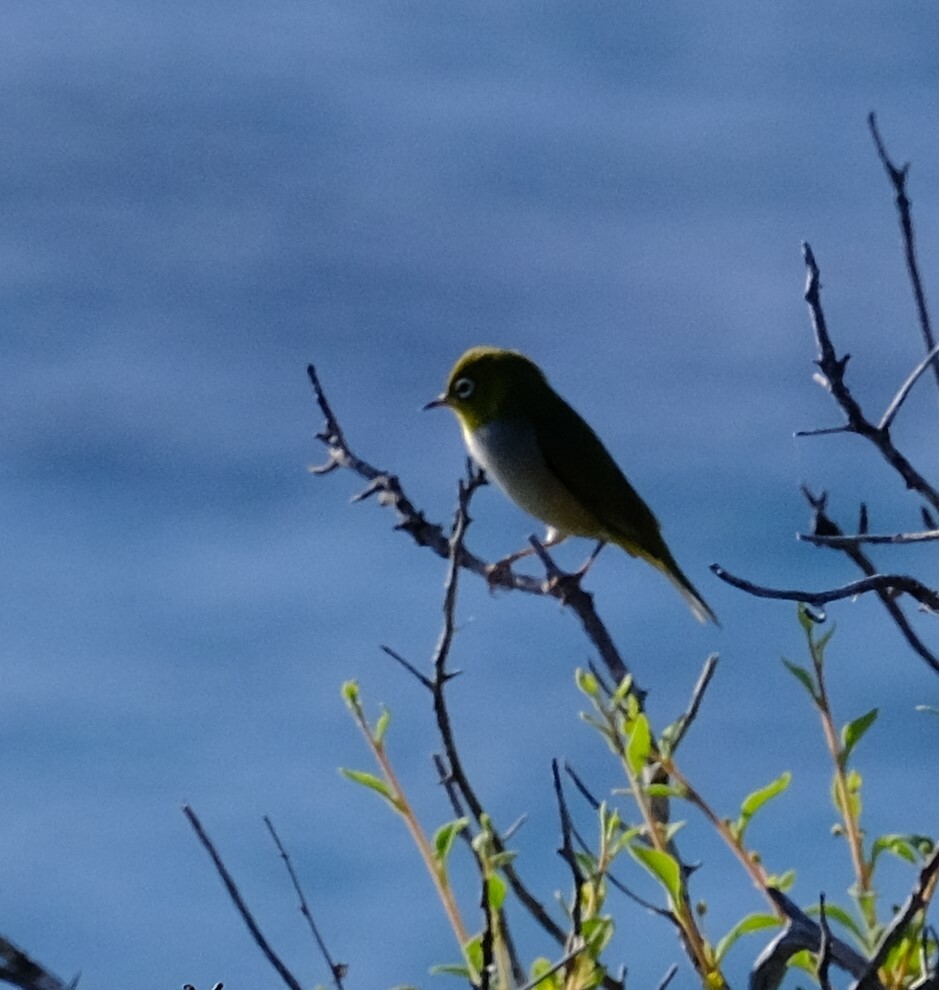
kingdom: Animalia
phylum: Chordata
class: Aves
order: Passeriformes
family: Zosteropidae
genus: Zosterops
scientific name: Zosterops lateralis
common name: Silvereye
